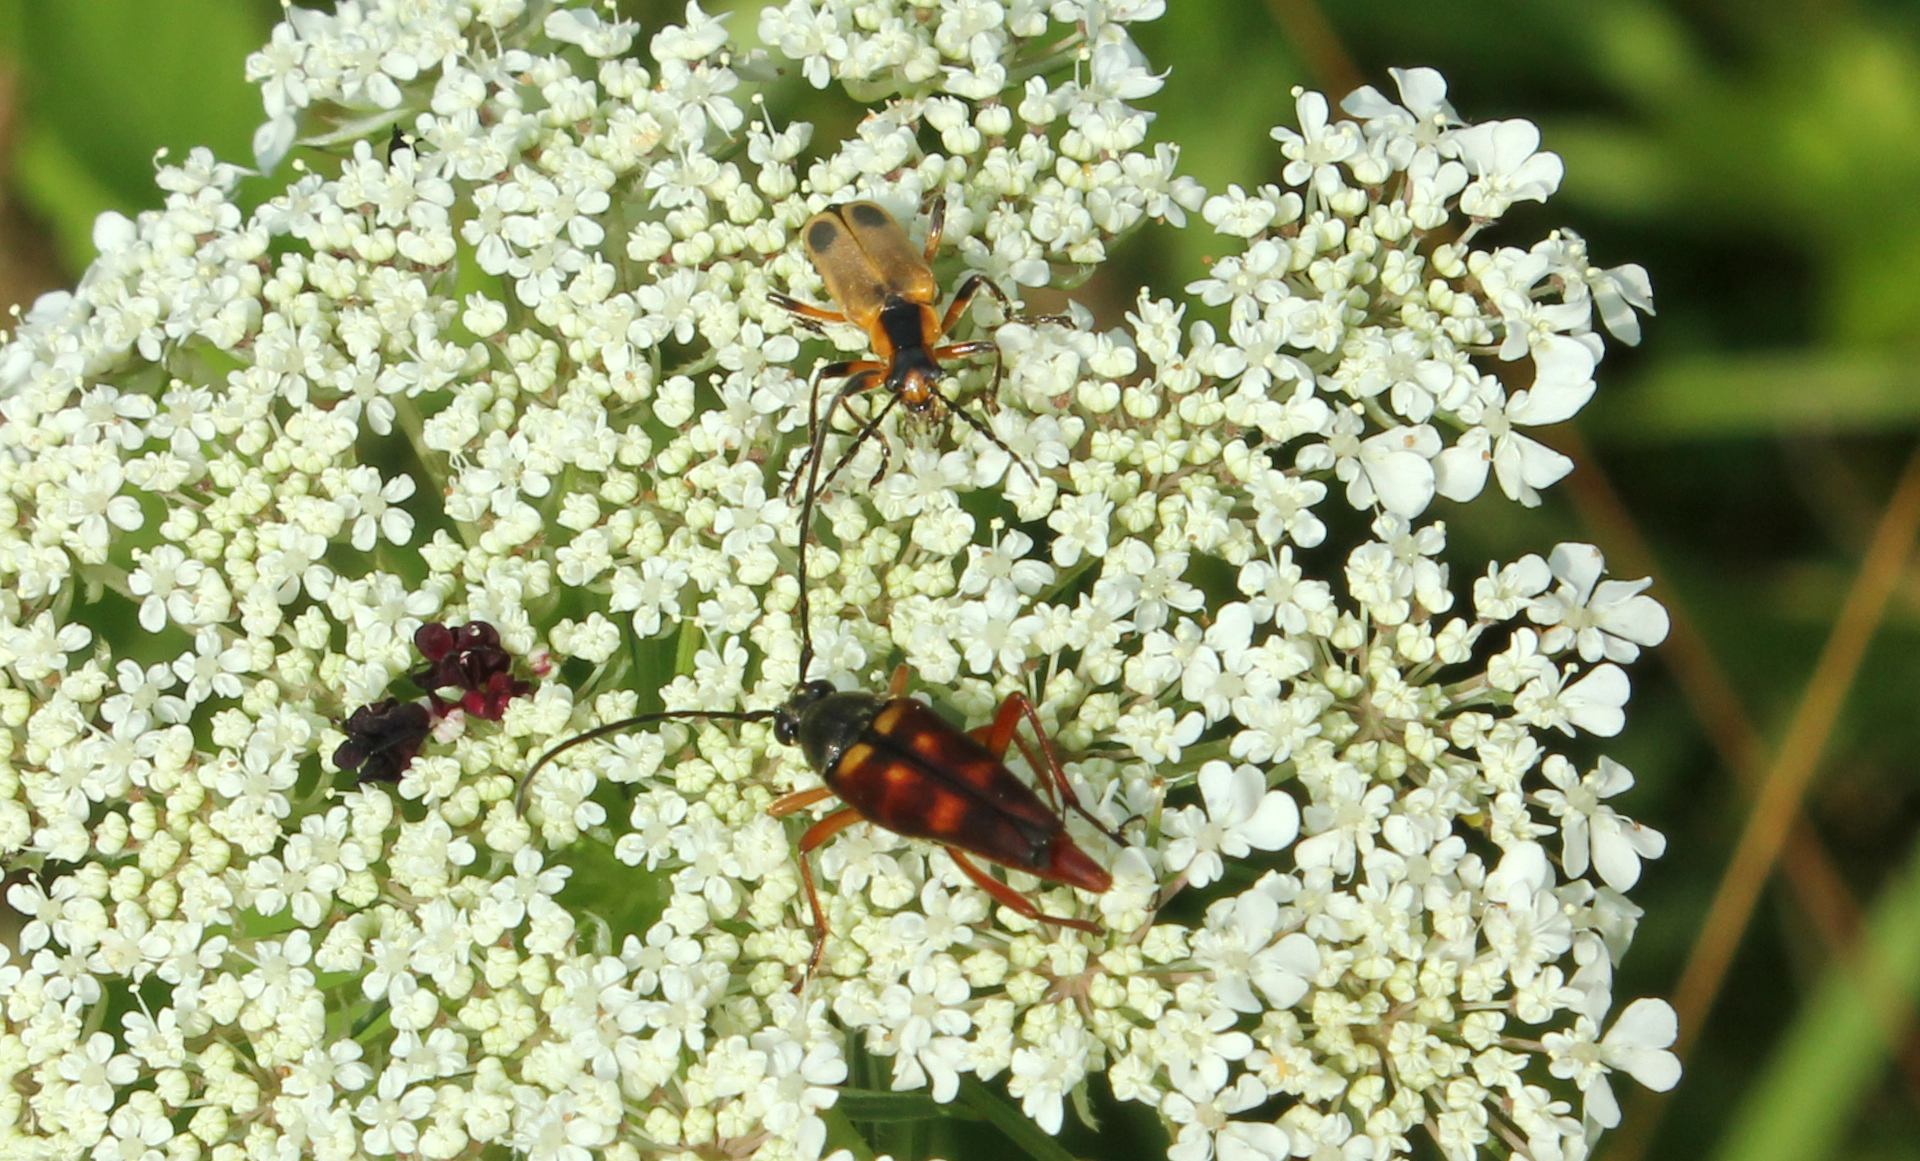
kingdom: Animalia
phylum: Arthropoda
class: Insecta
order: Coleoptera
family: Cerambycidae
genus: Typocerus
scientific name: Typocerus velutinus
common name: Banded longhorn beetle
